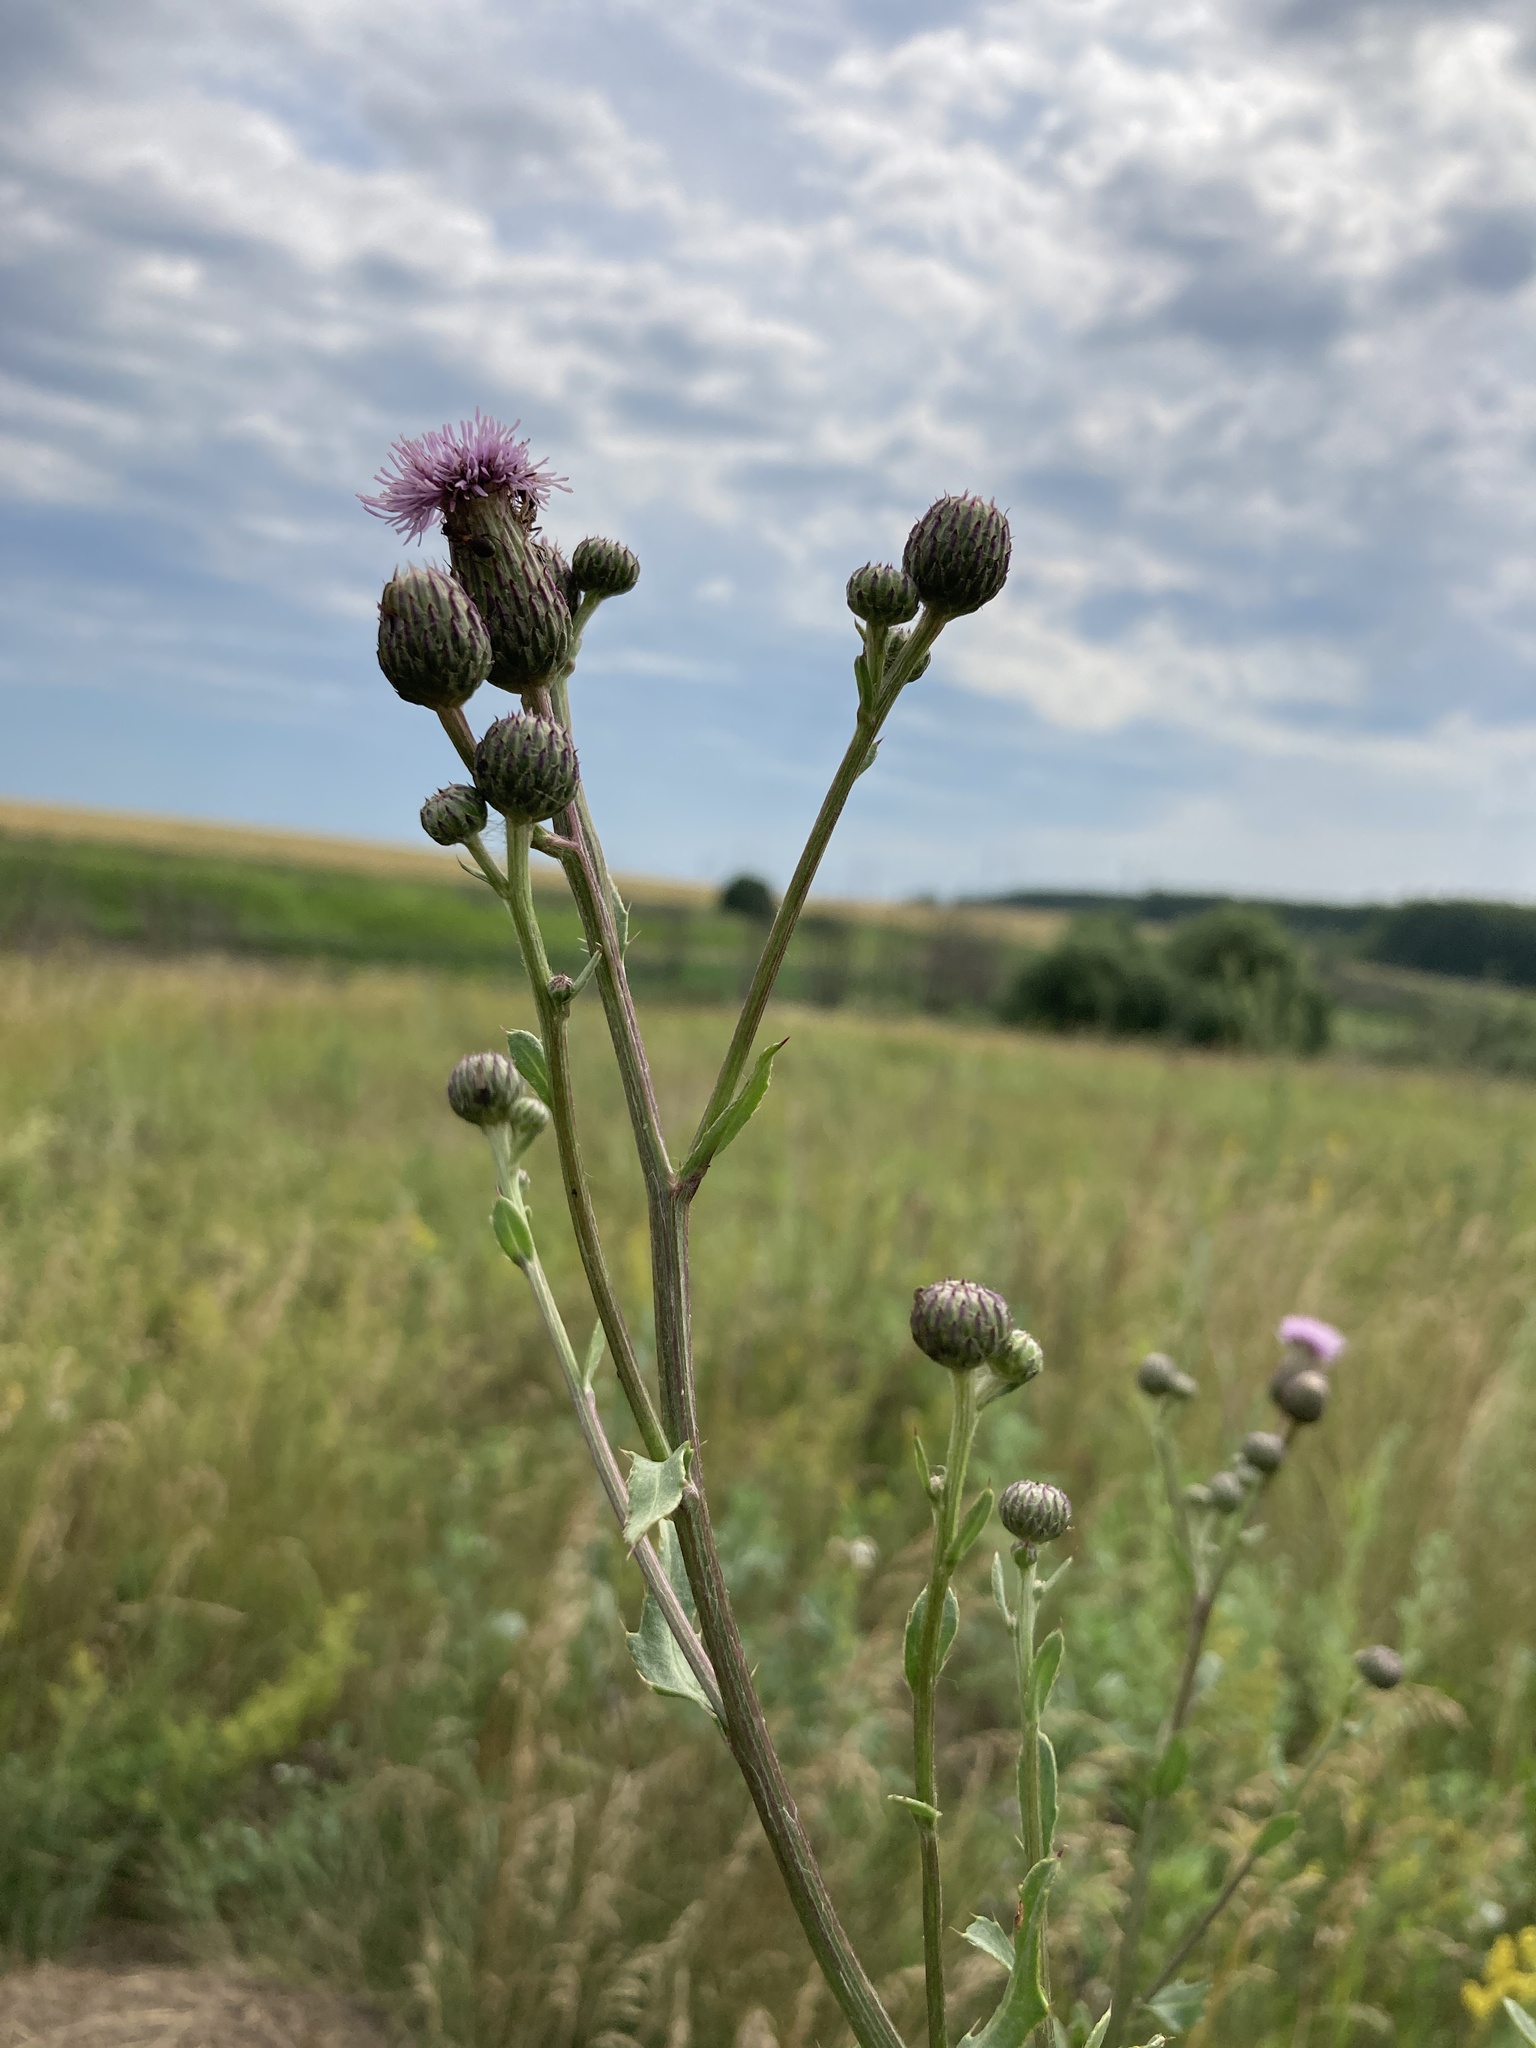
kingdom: Plantae
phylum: Tracheophyta
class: Magnoliopsida
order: Asterales
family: Asteraceae
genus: Cirsium
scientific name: Cirsium arvense
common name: Creeping thistle
